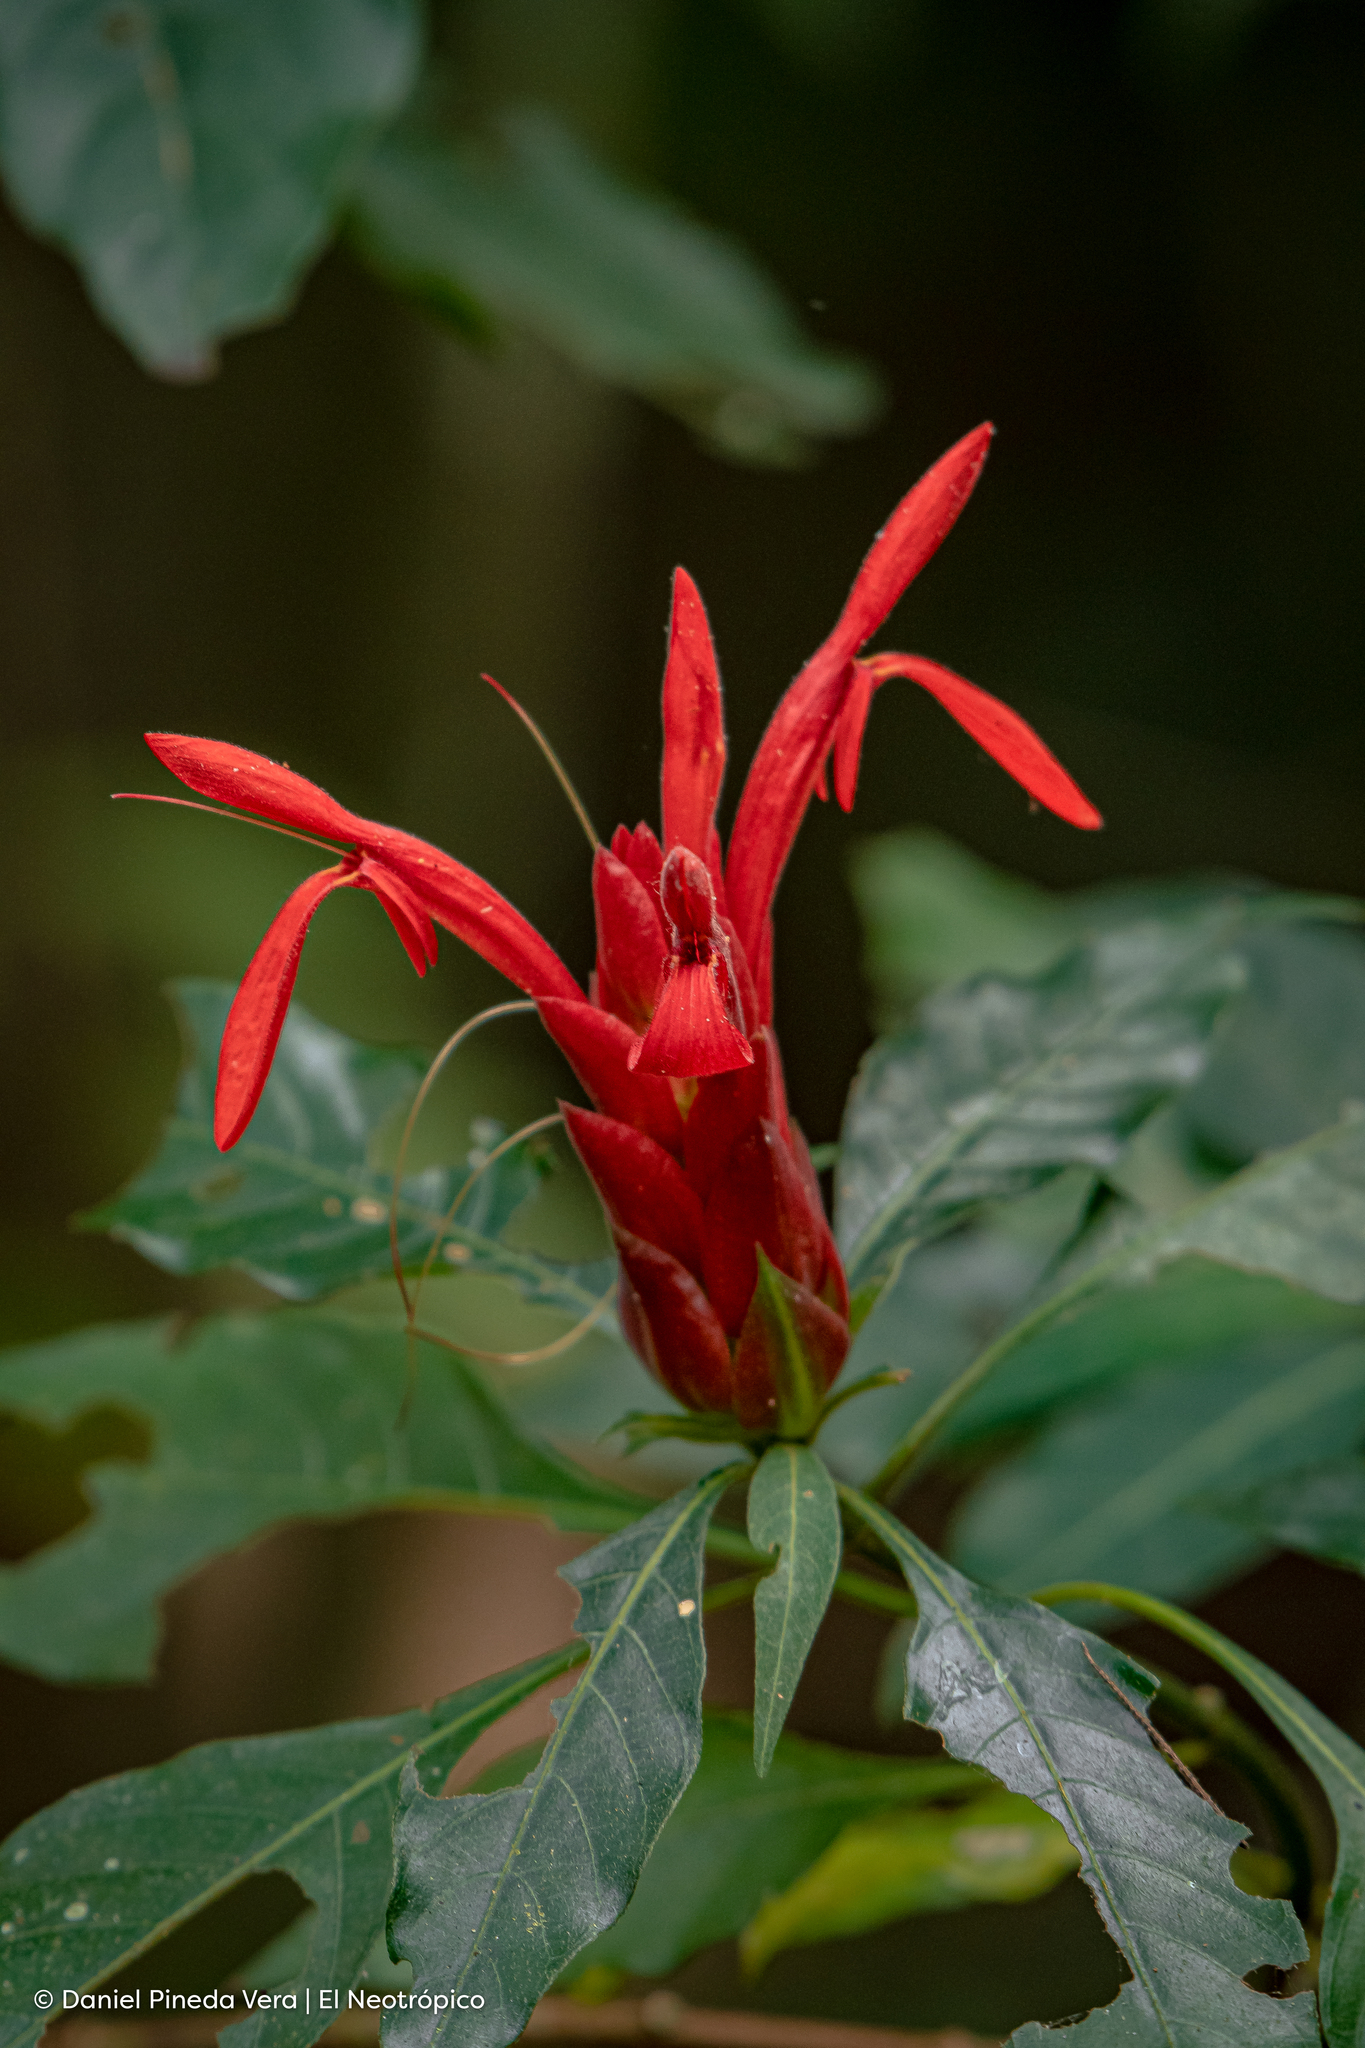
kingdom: Plantae
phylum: Tracheophyta
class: Magnoliopsida
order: Lamiales
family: Acanthaceae
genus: Aphelandra
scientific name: Aphelandra aurantiaca
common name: Fiery spike
